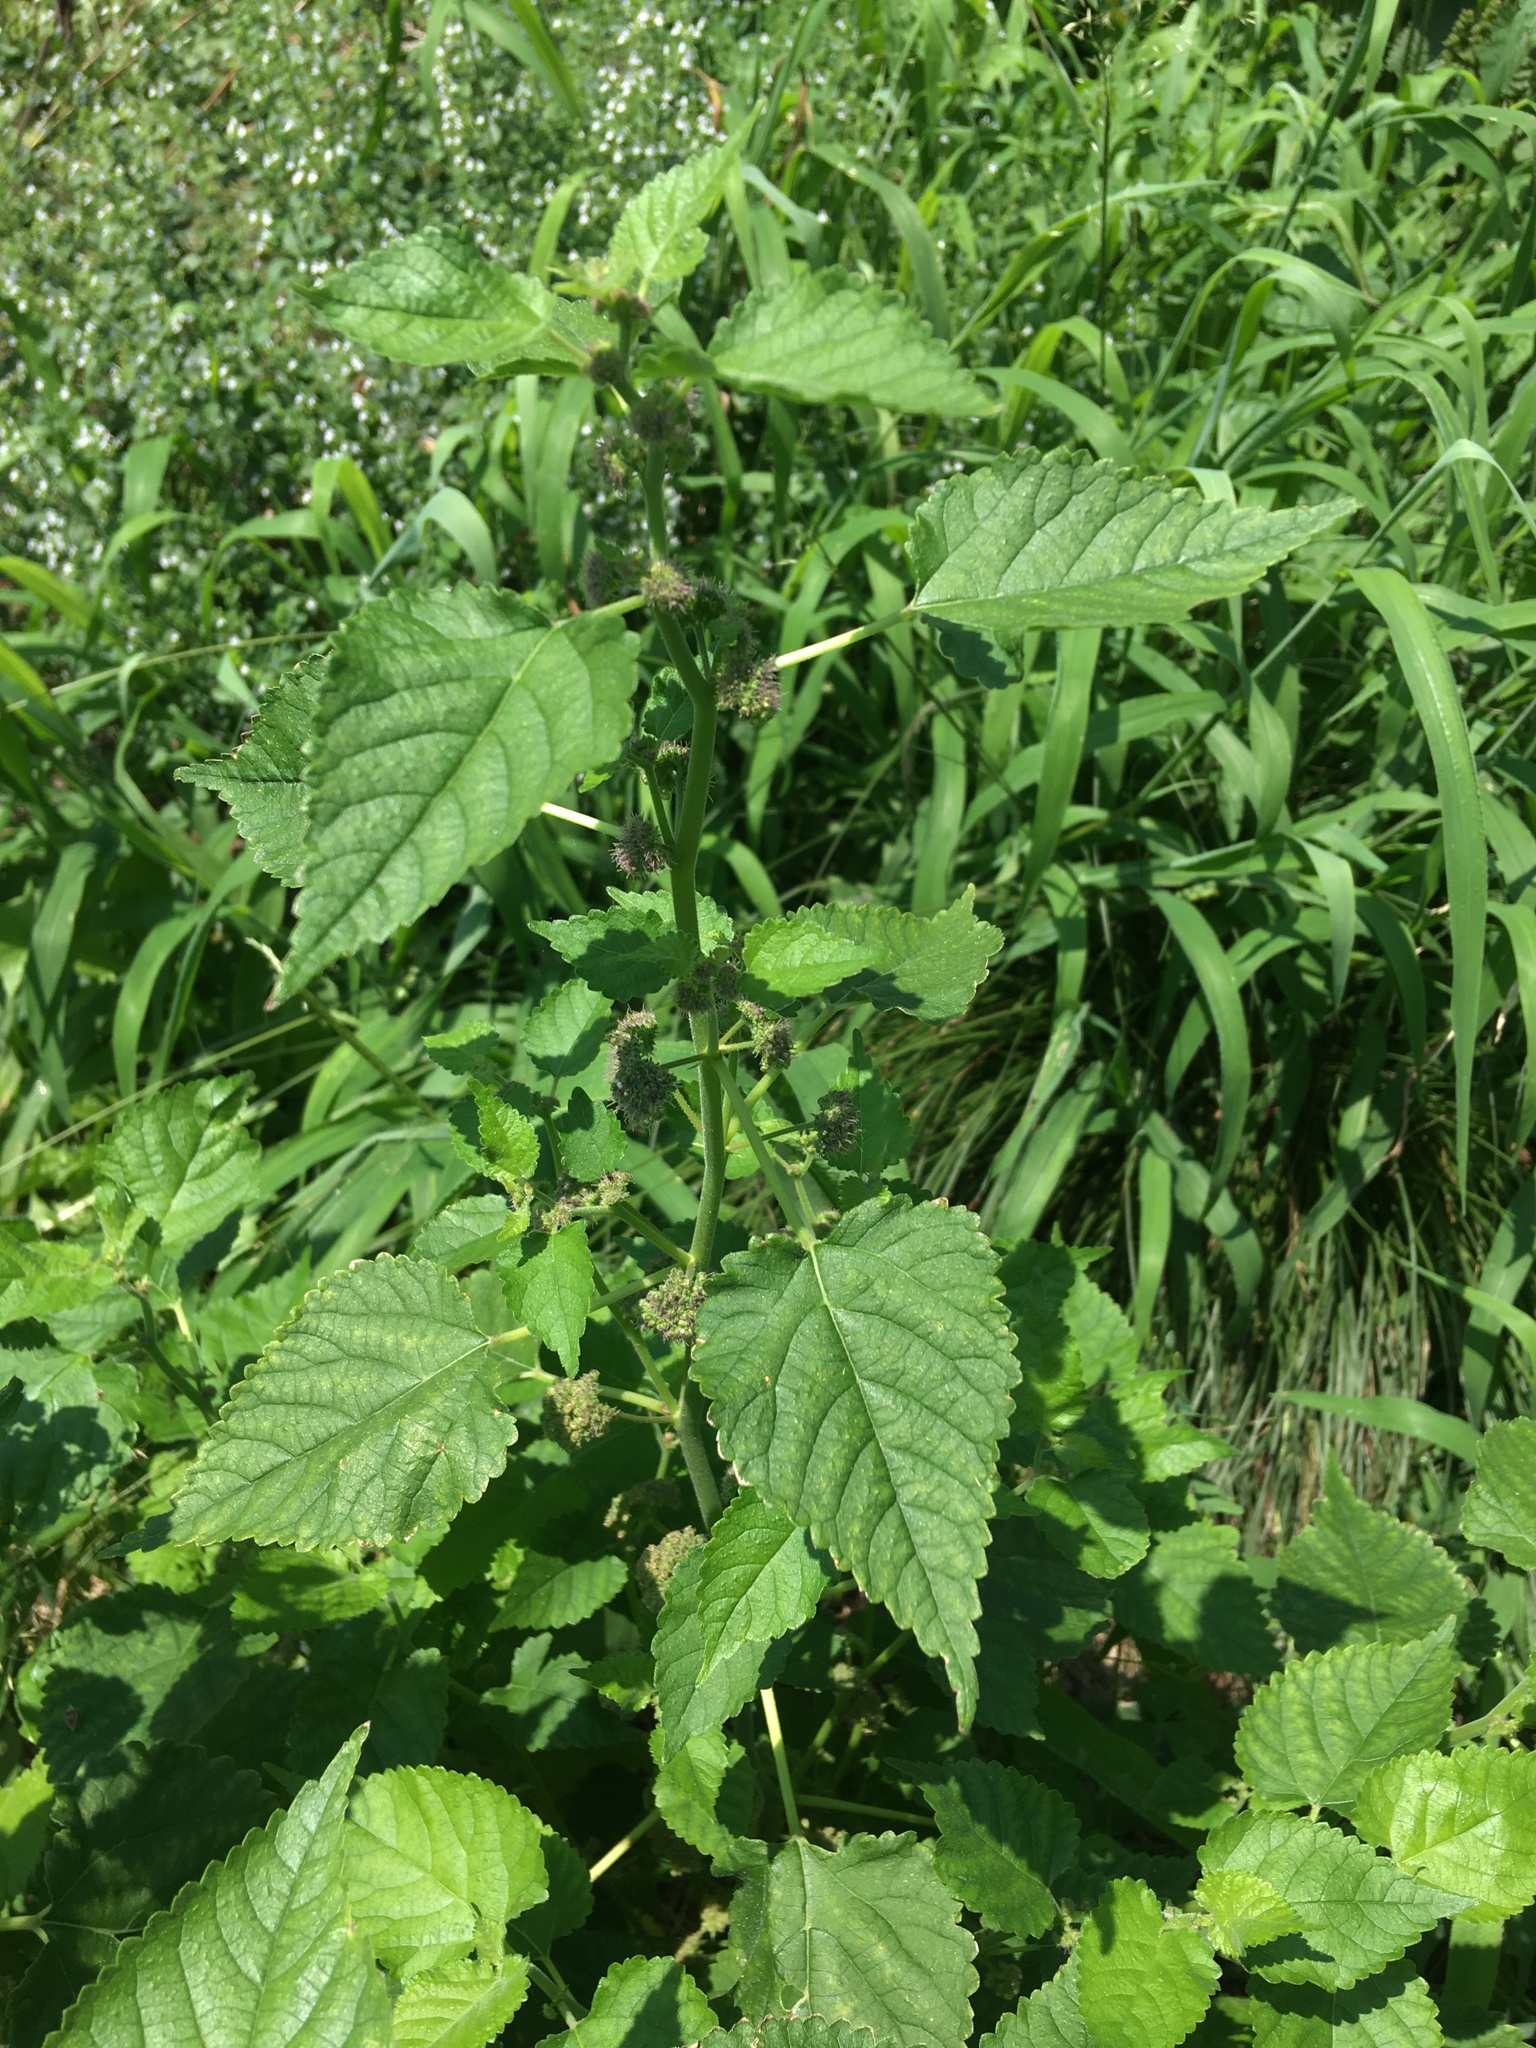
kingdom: Plantae
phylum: Tracheophyta
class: Magnoliopsida
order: Rosales
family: Moraceae
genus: Fatoua
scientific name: Fatoua villosa
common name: Hairy crabweed
